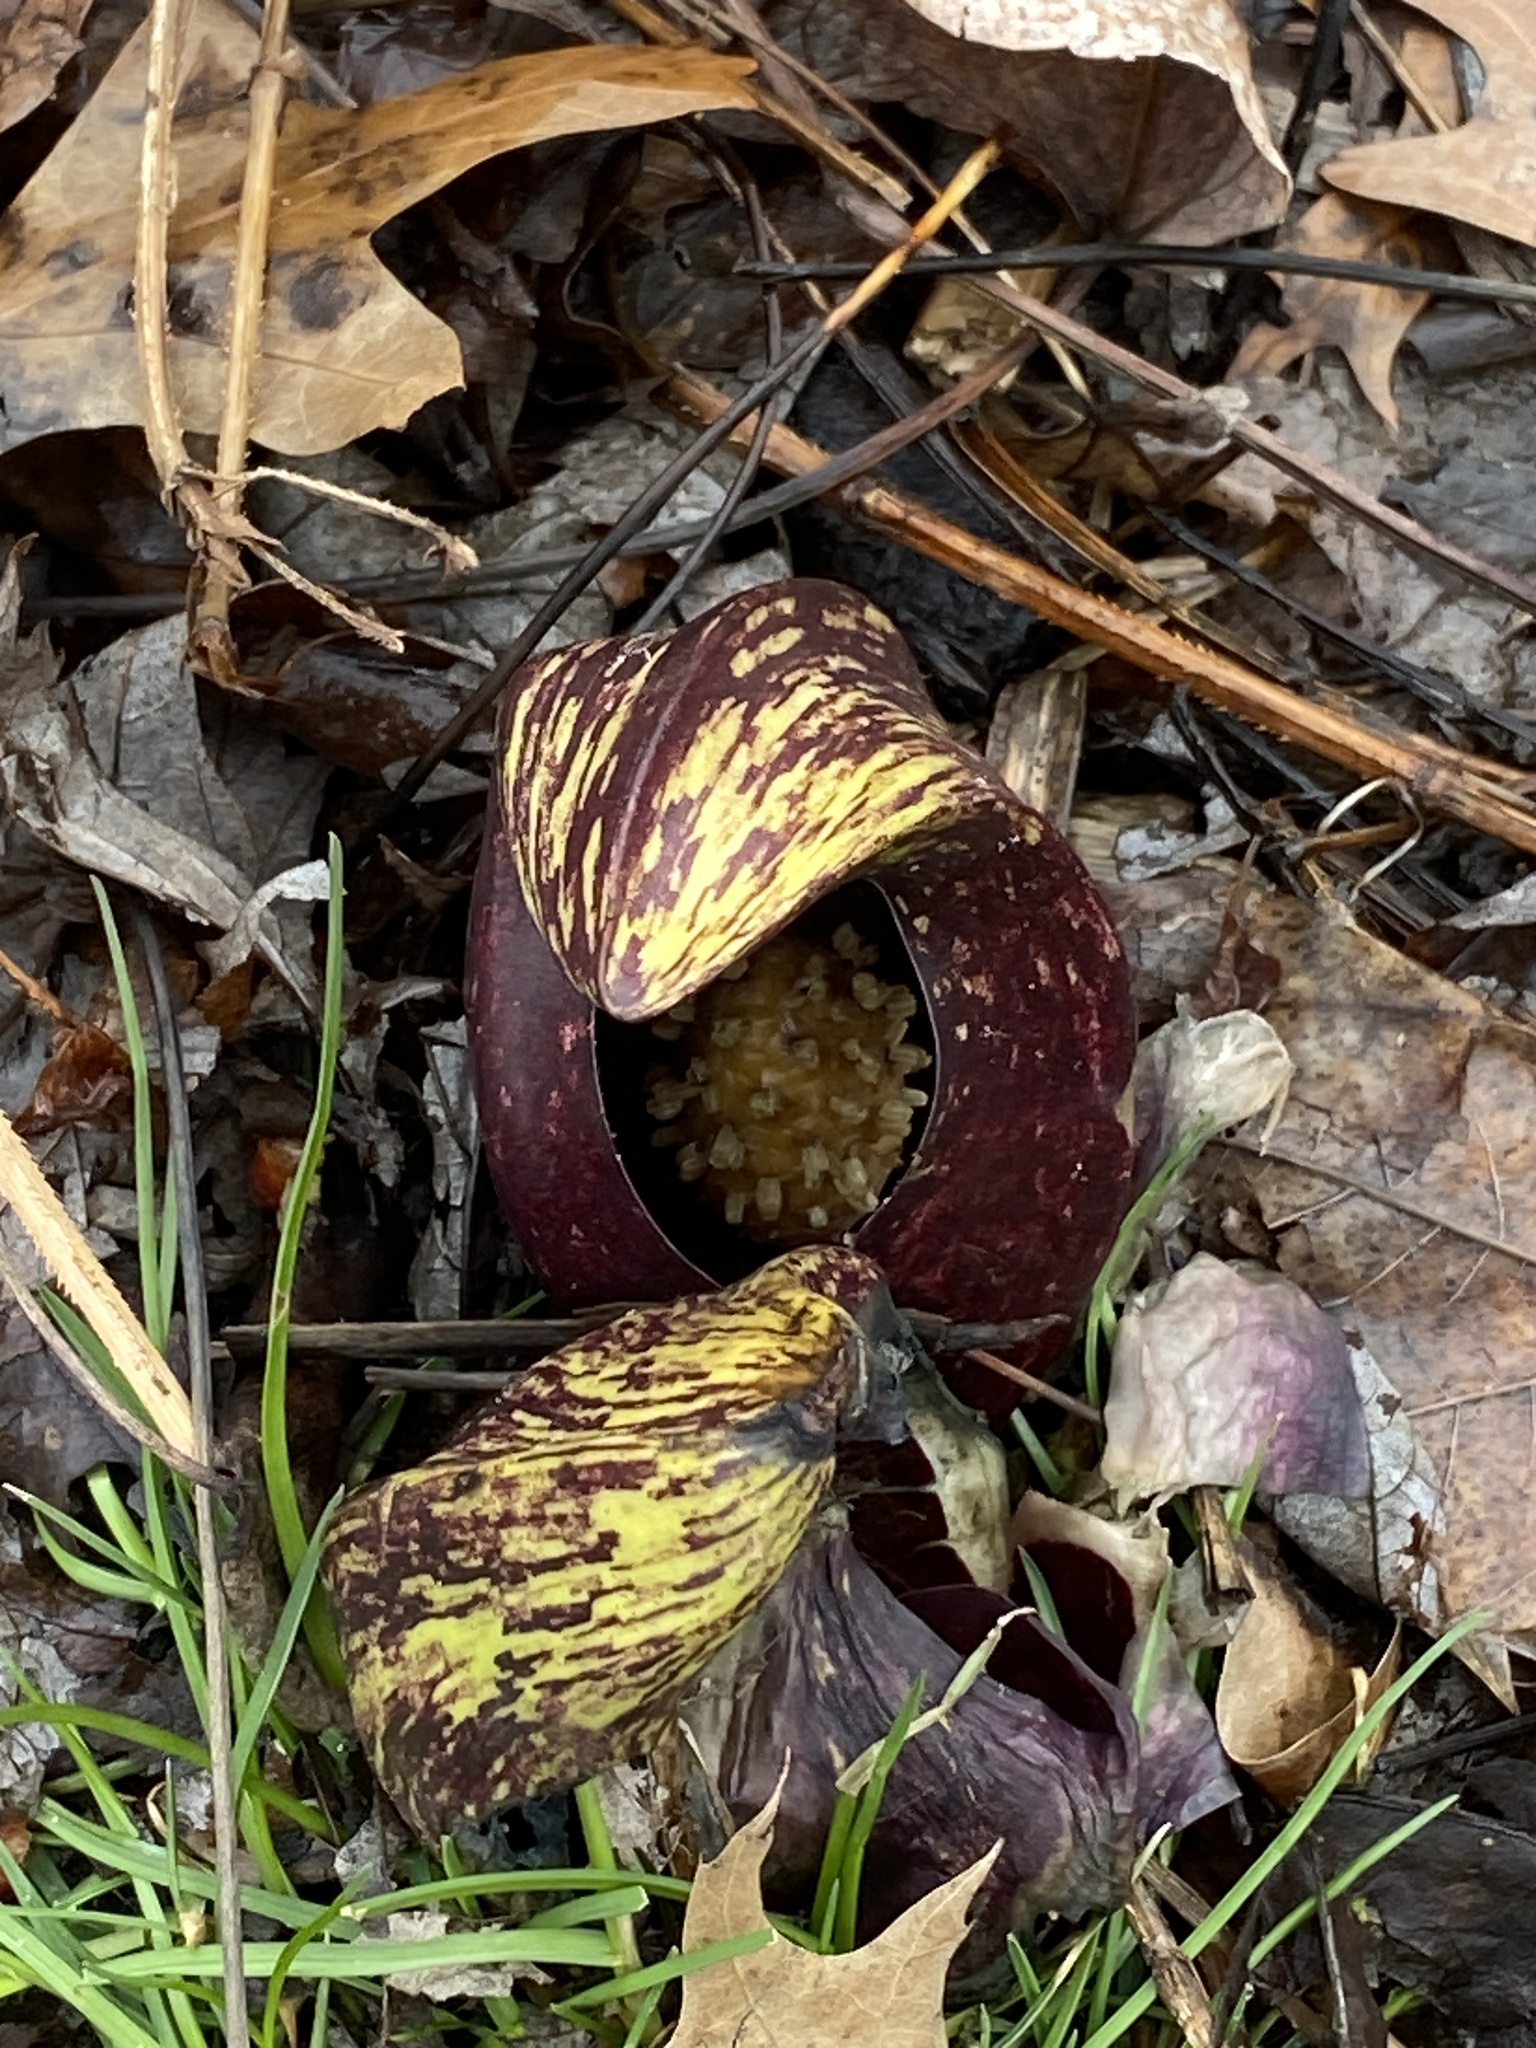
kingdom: Plantae
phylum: Tracheophyta
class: Liliopsida
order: Alismatales
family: Araceae
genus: Symplocarpus
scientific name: Symplocarpus foetidus
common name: Eastern skunk cabbage
